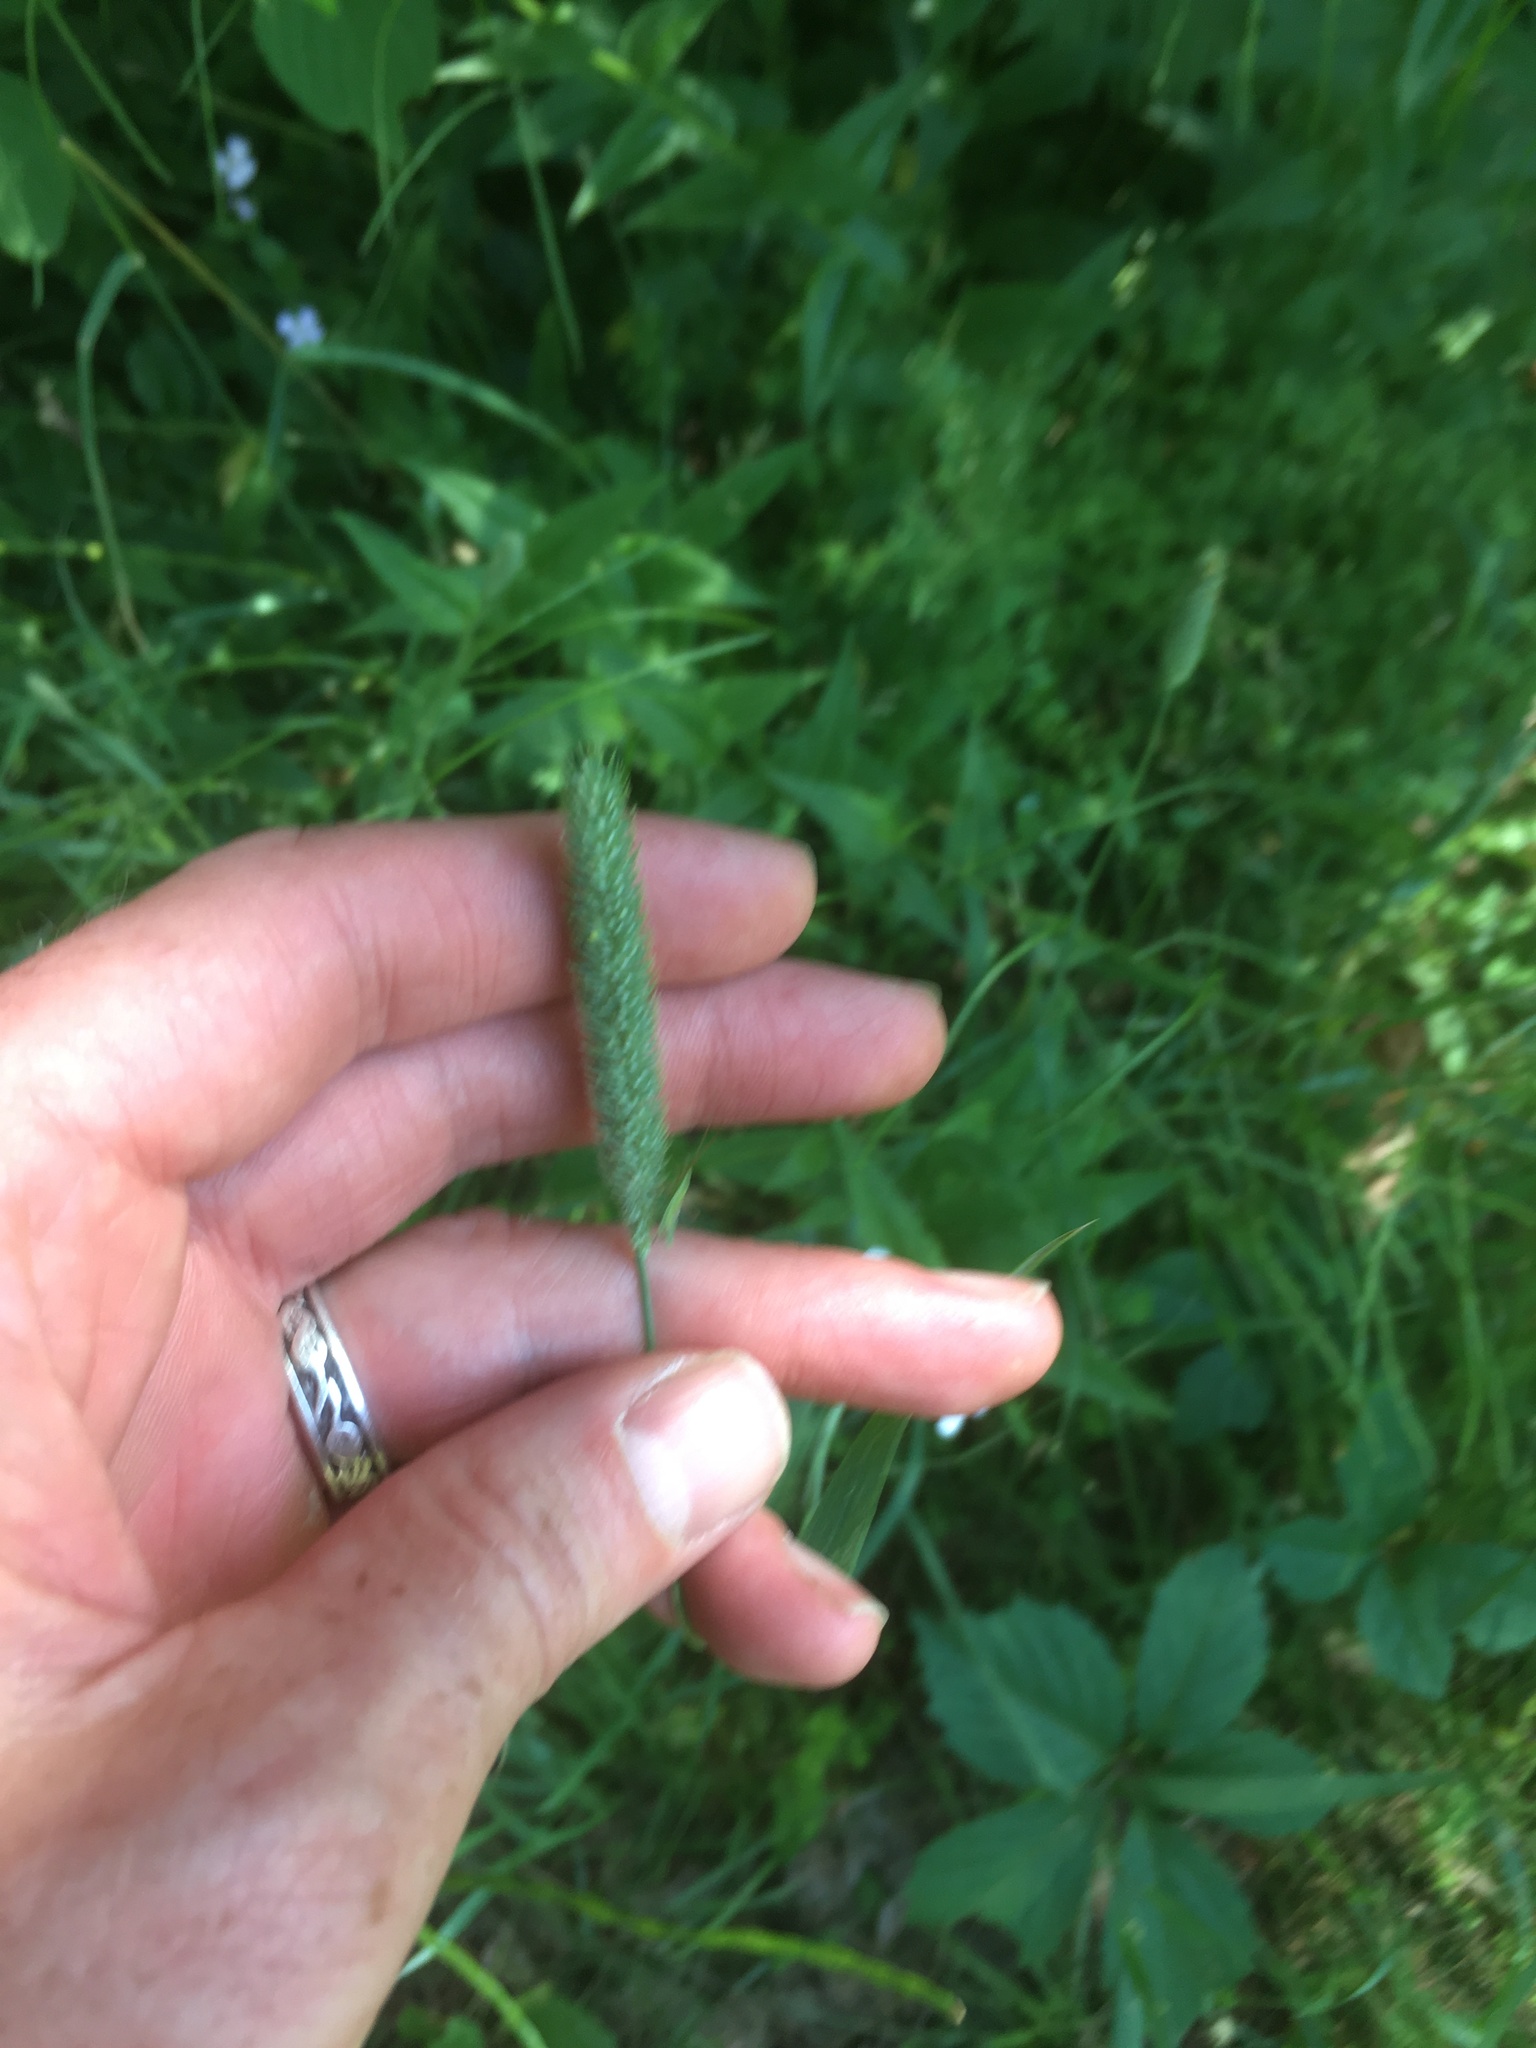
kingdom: Plantae
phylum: Tracheophyta
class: Liliopsida
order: Poales
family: Poaceae
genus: Phleum
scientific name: Phleum pratense
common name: Timothy grass
